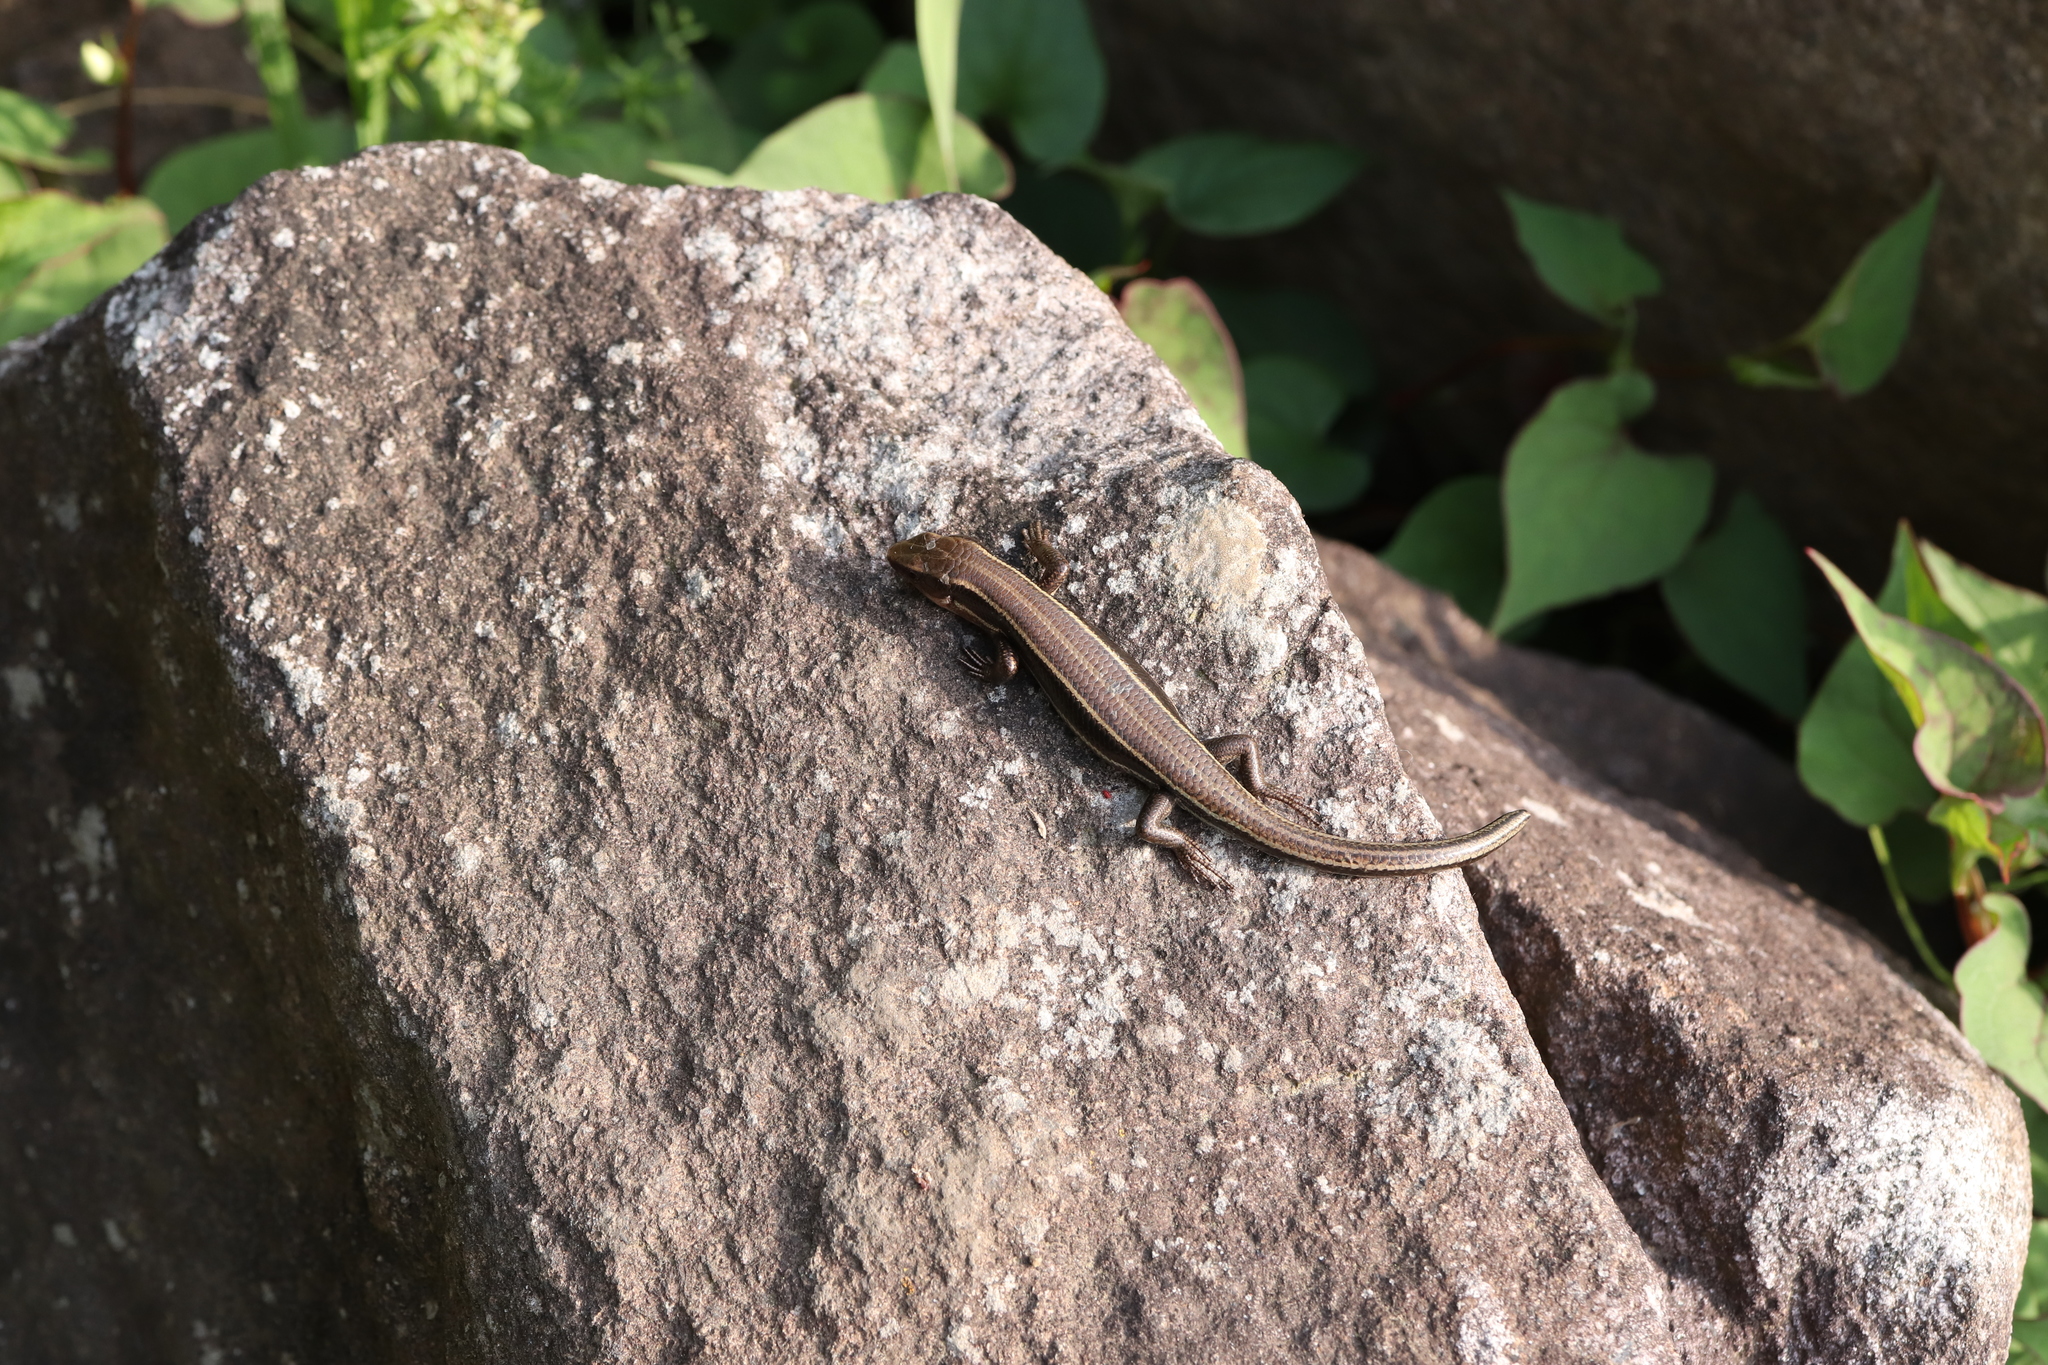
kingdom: Animalia
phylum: Chordata
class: Squamata
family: Scincidae
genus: Plestiodon
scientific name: Plestiodon finitimus
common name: Far eastern skink
